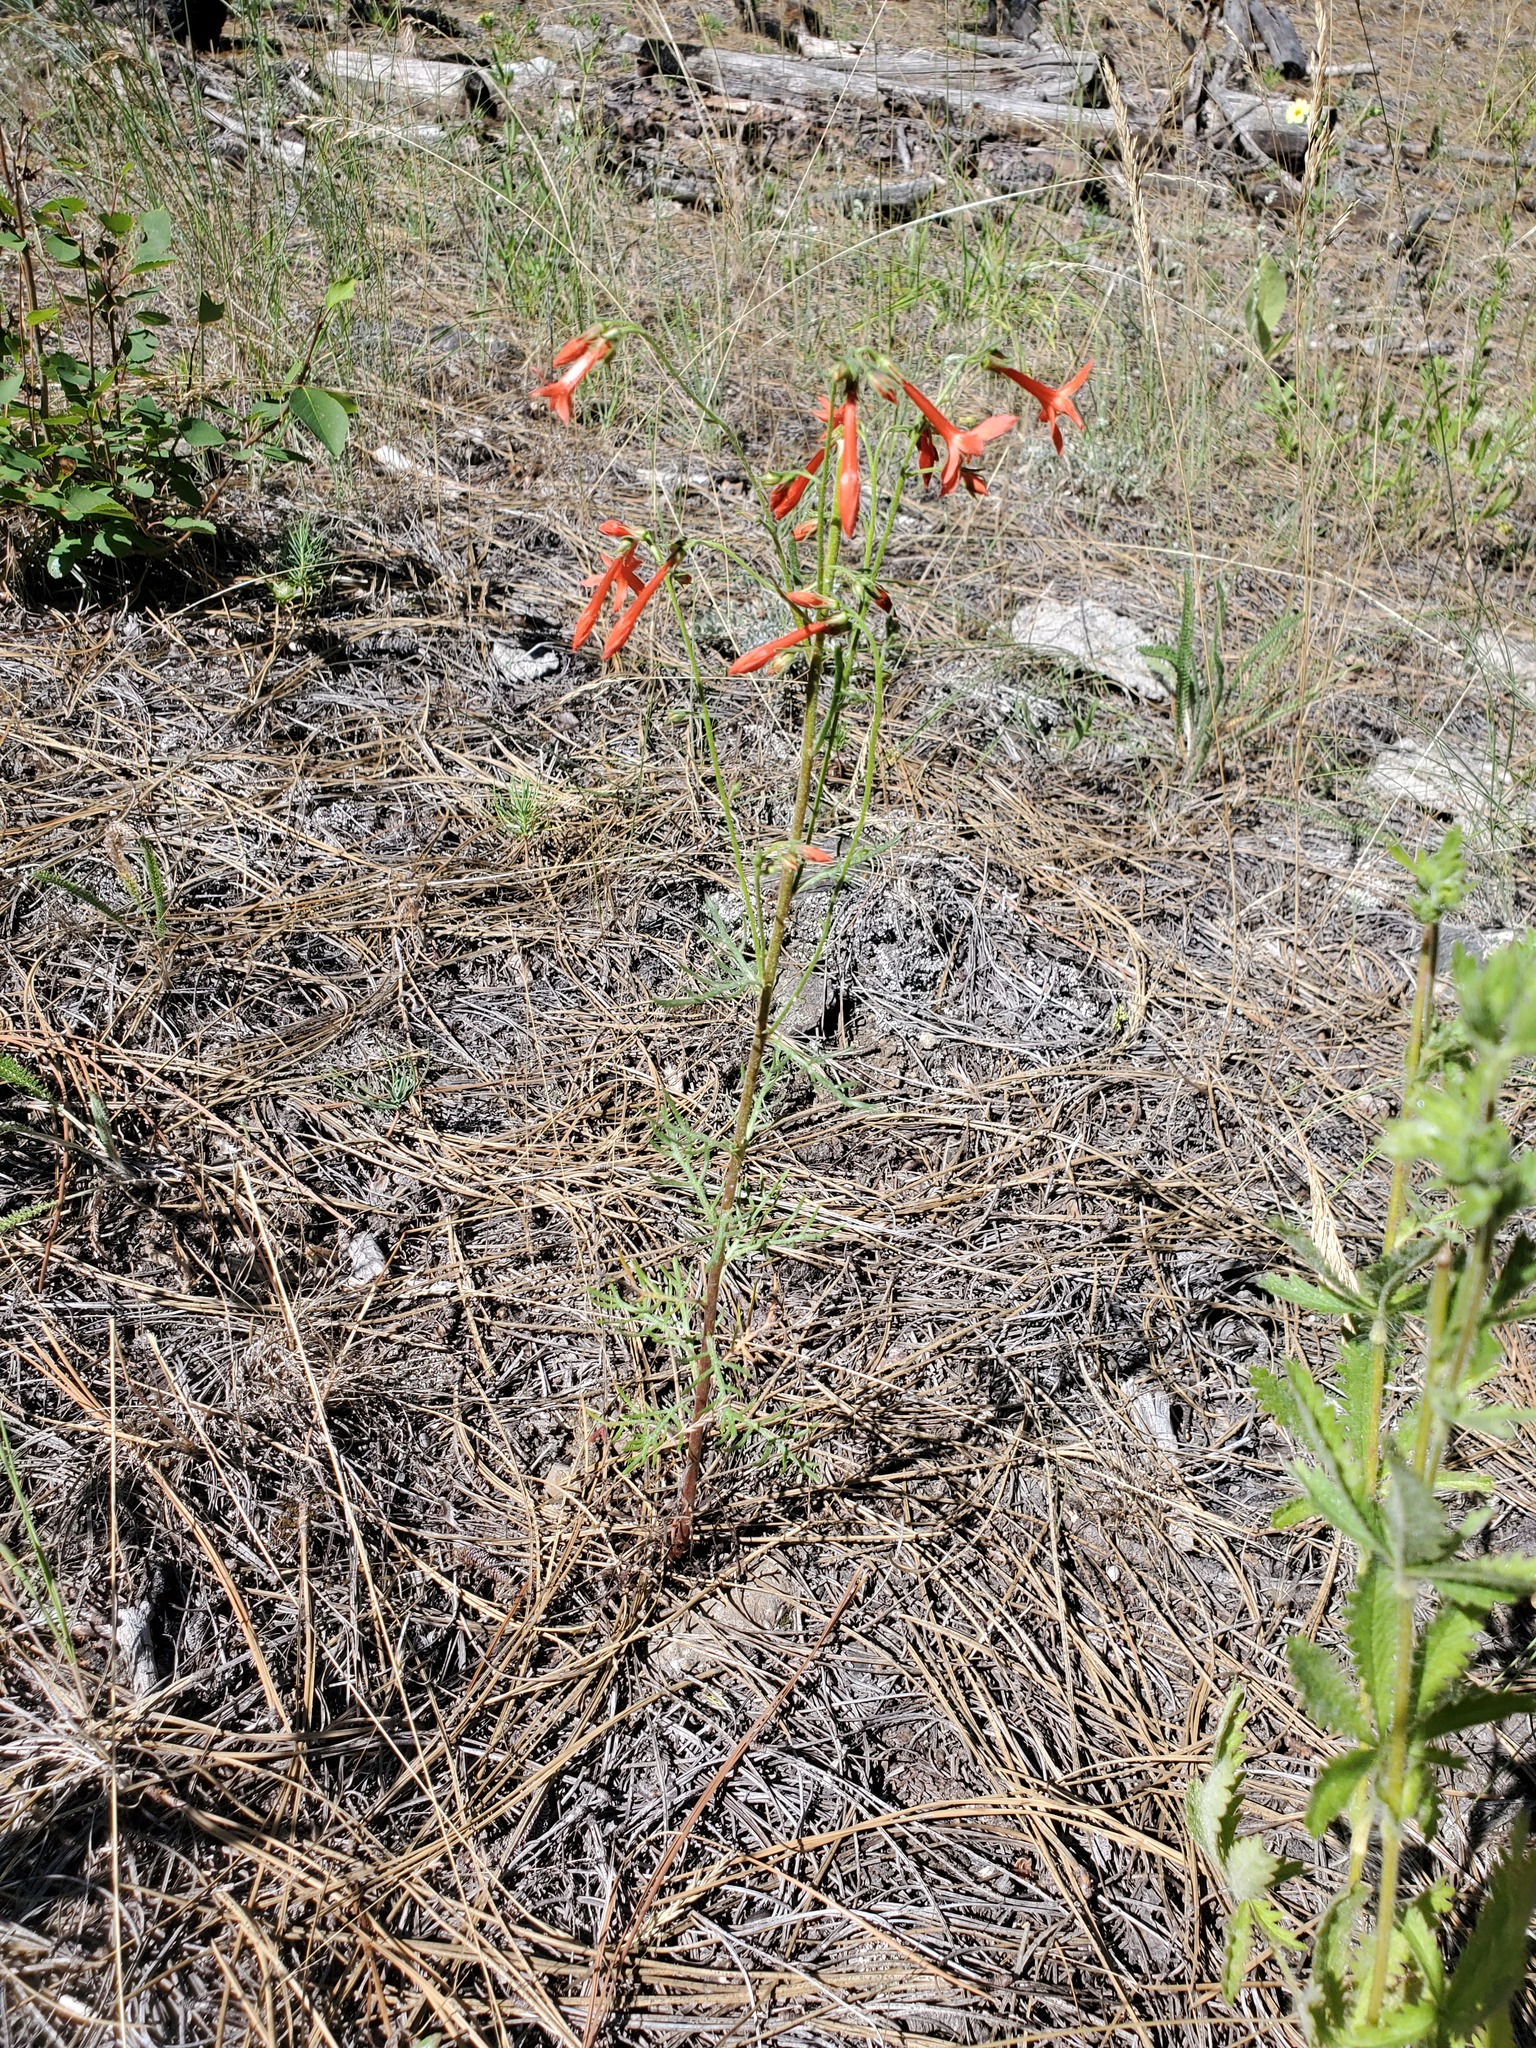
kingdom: Plantae
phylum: Tracheophyta
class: Magnoliopsida
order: Ericales
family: Polemoniaceae
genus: Ipomopsis
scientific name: Ipomopsis aggregata
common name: Scarlet gilia
